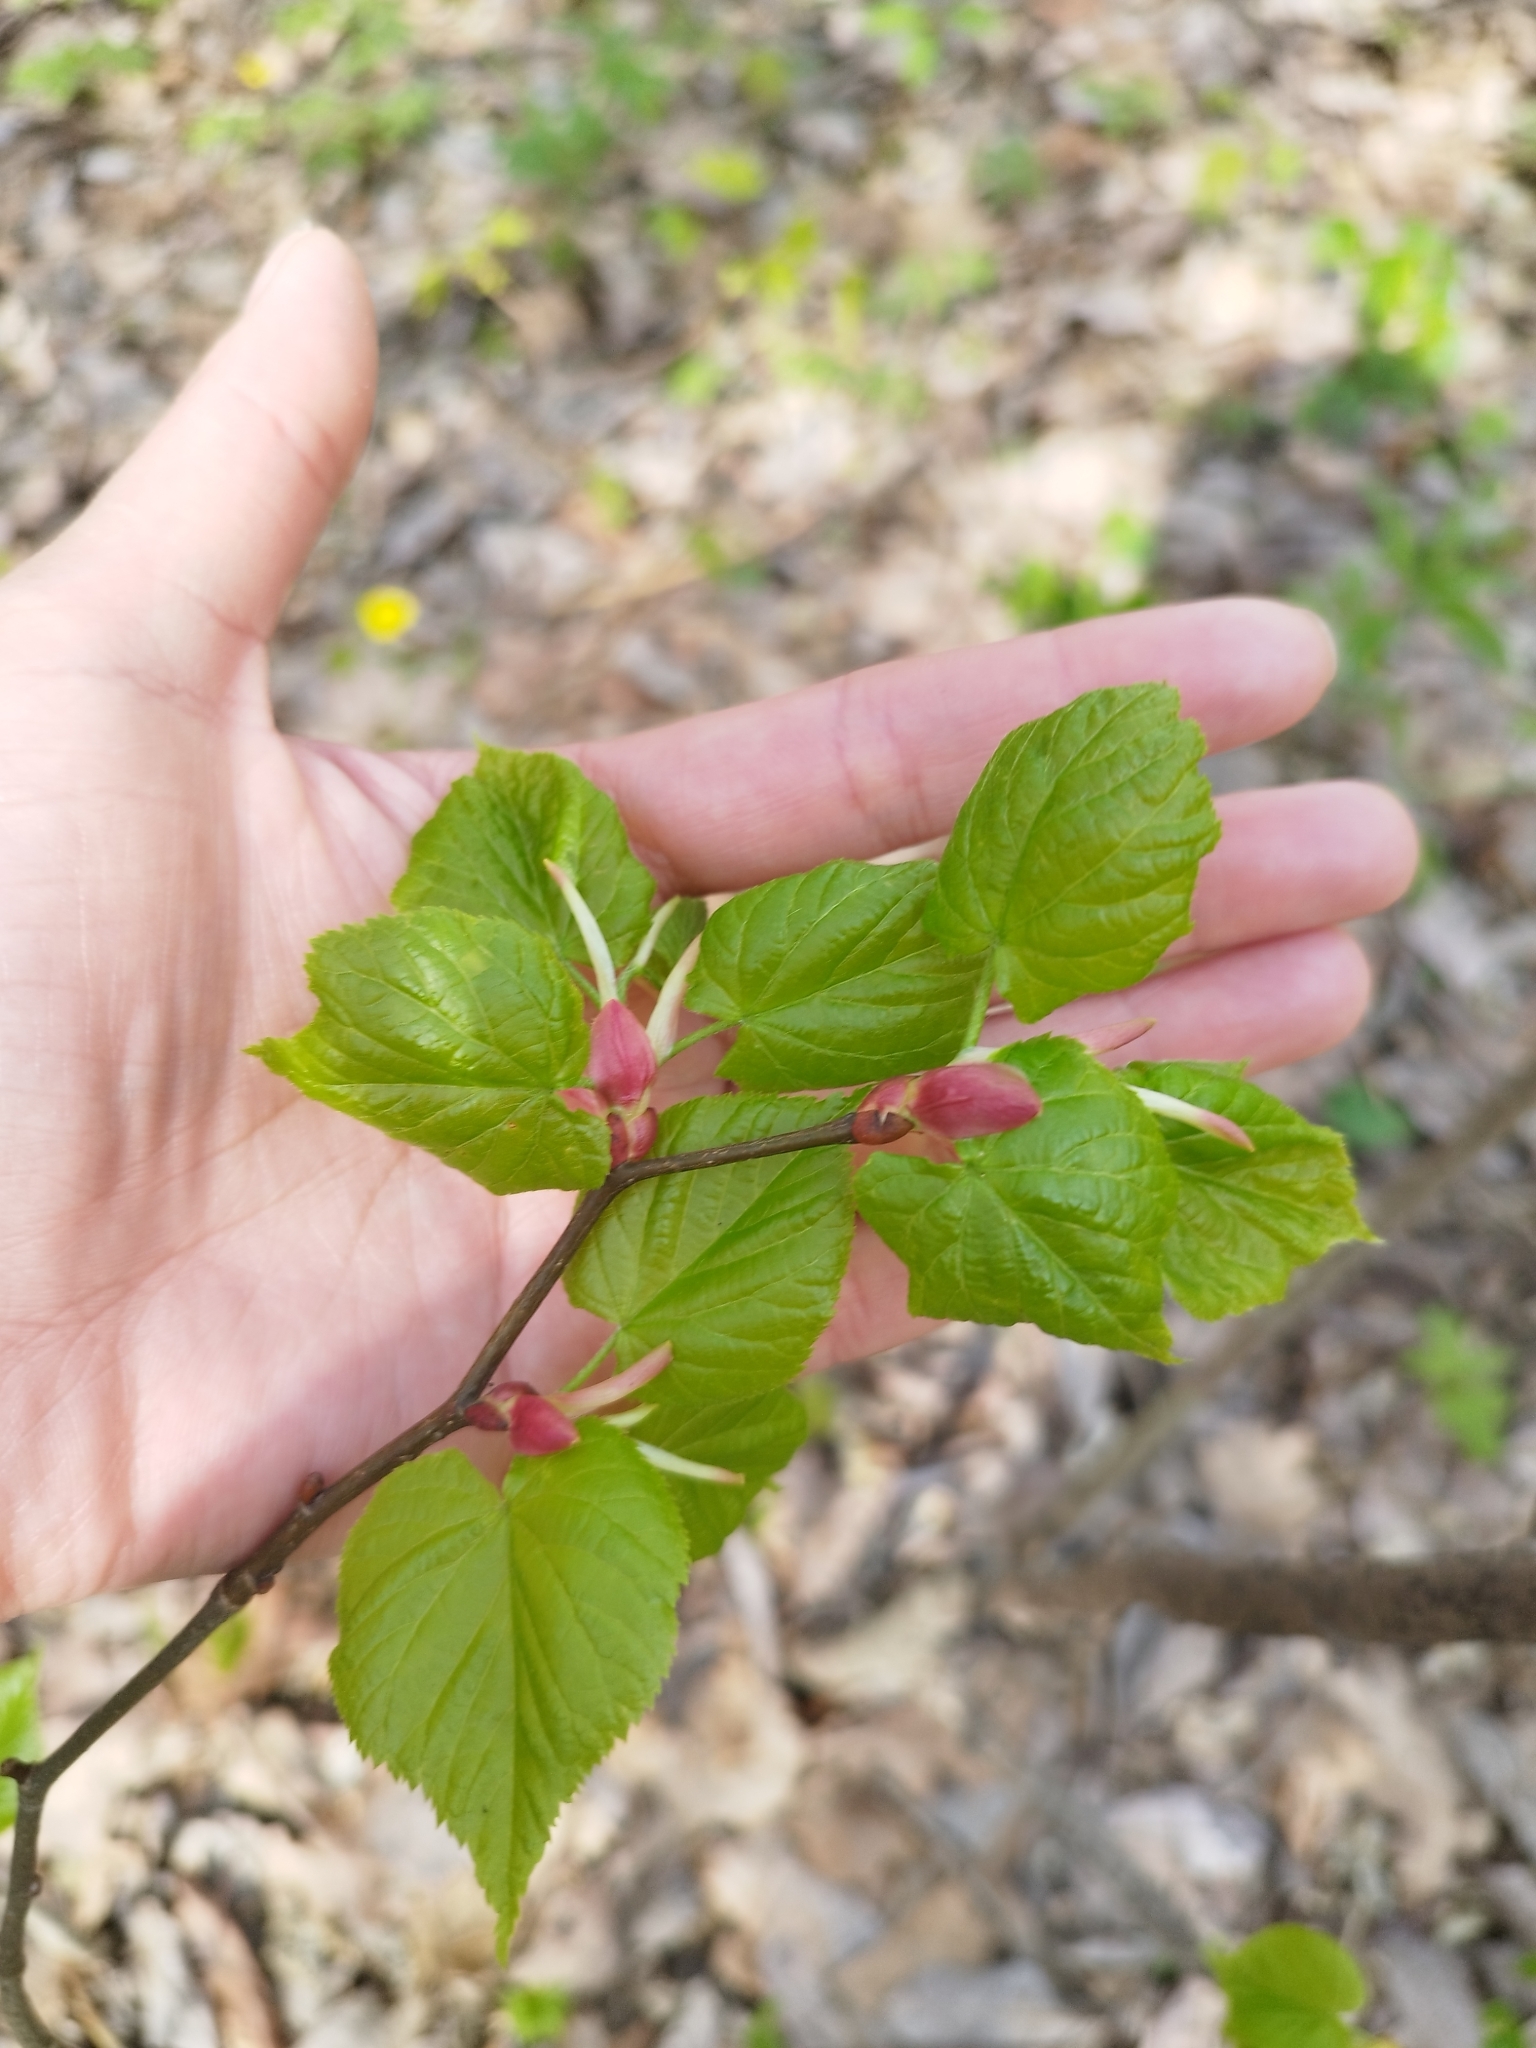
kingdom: Plantae
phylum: Tracheophyta
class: Magnoliopsida
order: Malvales
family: Malvaceae
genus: Tilia
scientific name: Tilia cordata
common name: Small-leaved lime
